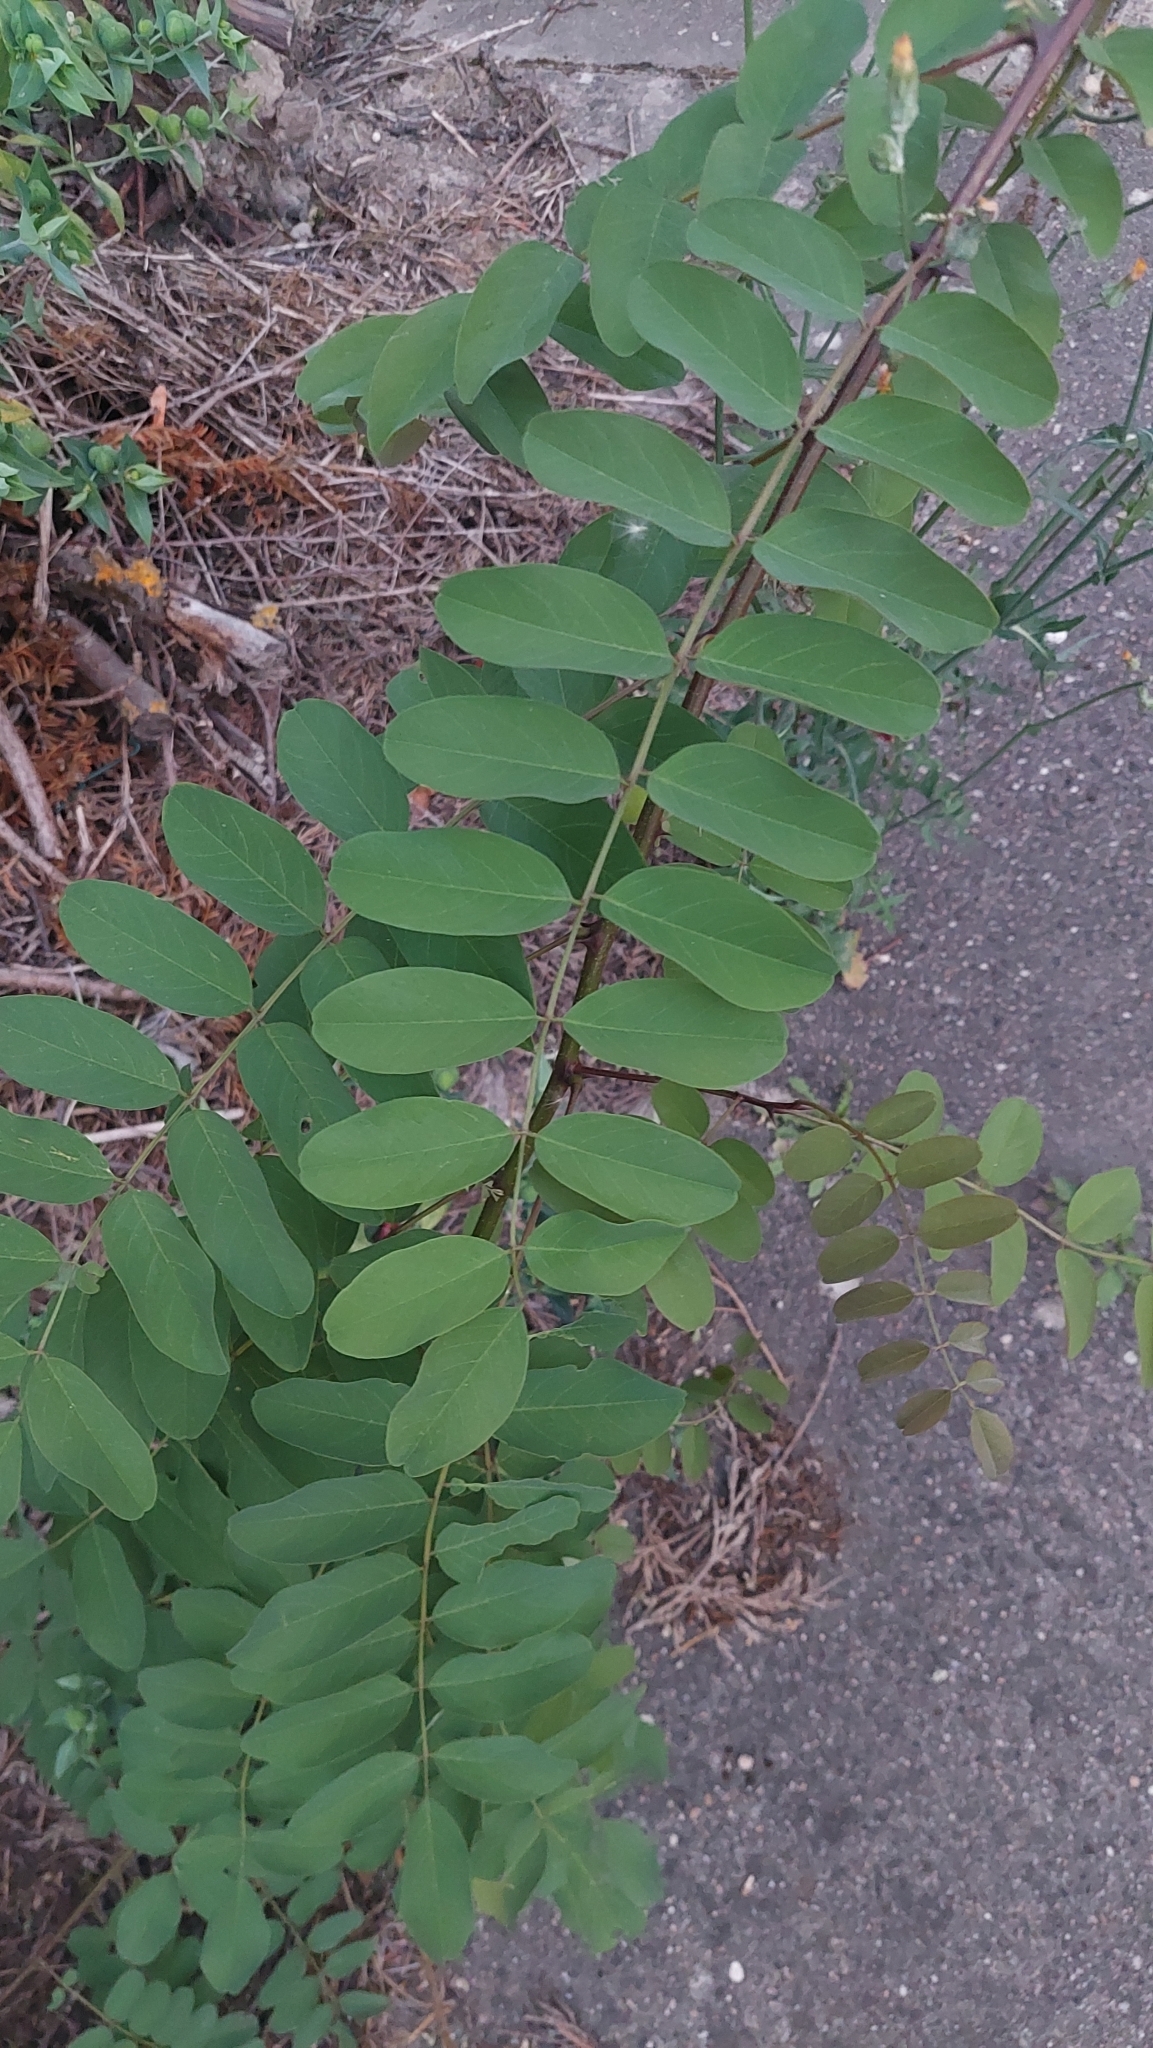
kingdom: Plantae
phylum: Tracheophyta
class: Magnoliopsida
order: Fabales
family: Fabaceae
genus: Robinia
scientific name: Robinia pseudoacacia
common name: Black locust
